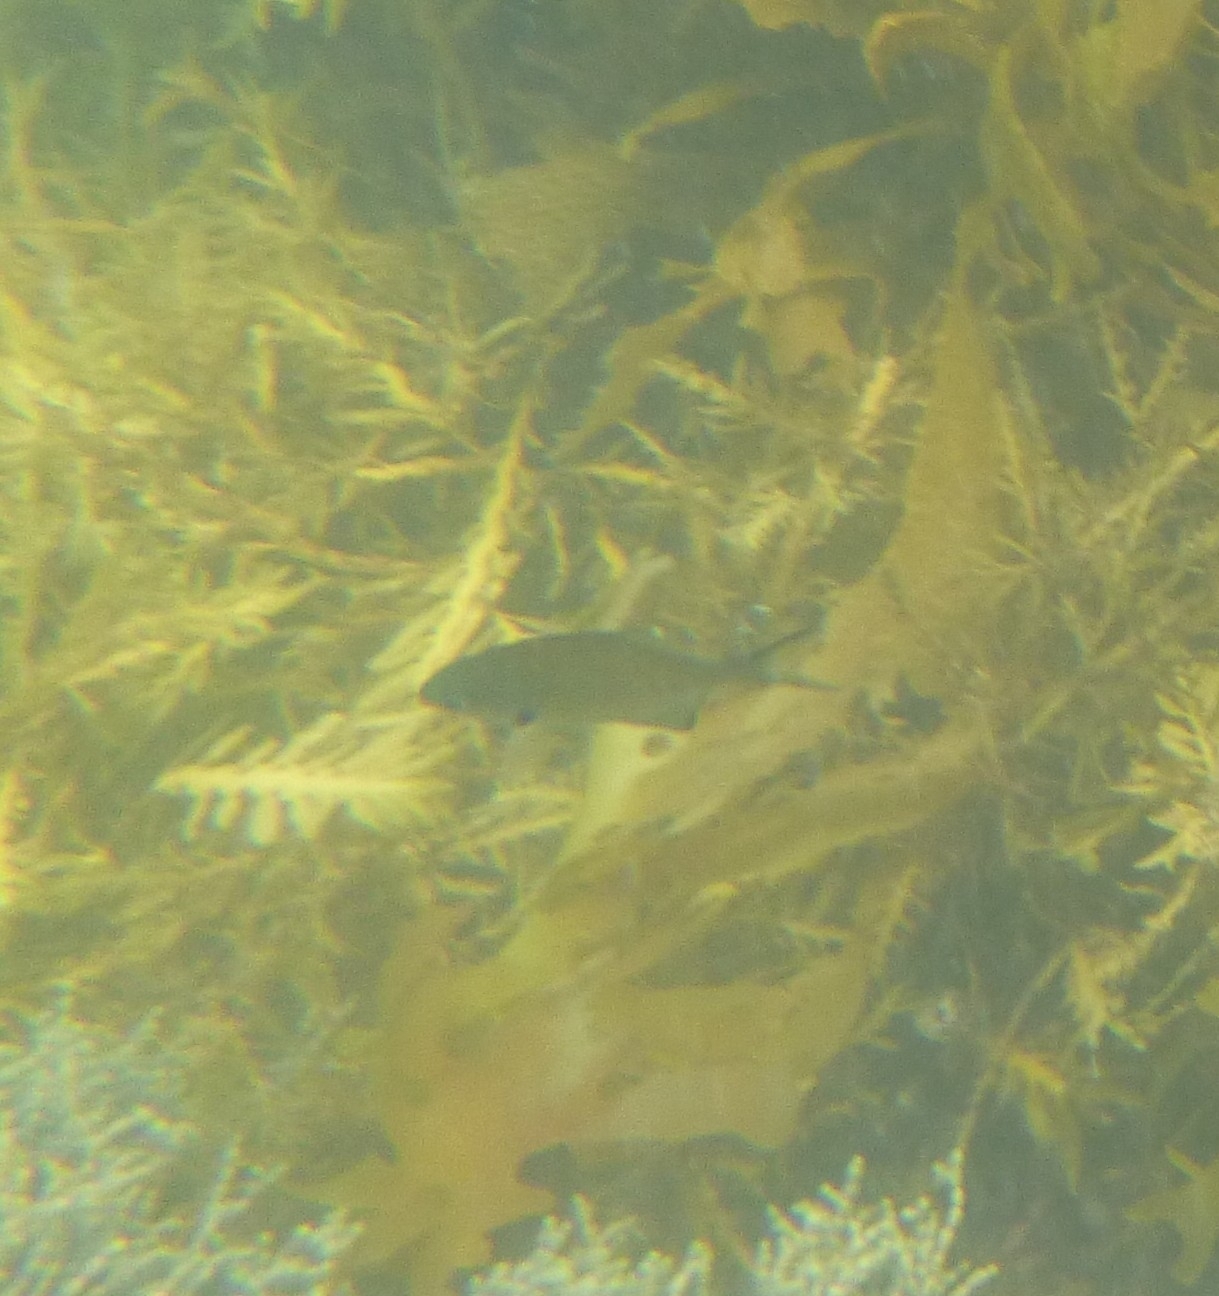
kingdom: Animalia
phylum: Chordata
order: Perciformes
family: Kyphosidae
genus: Scorpis
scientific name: Scorpis lineolata
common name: Sweep
